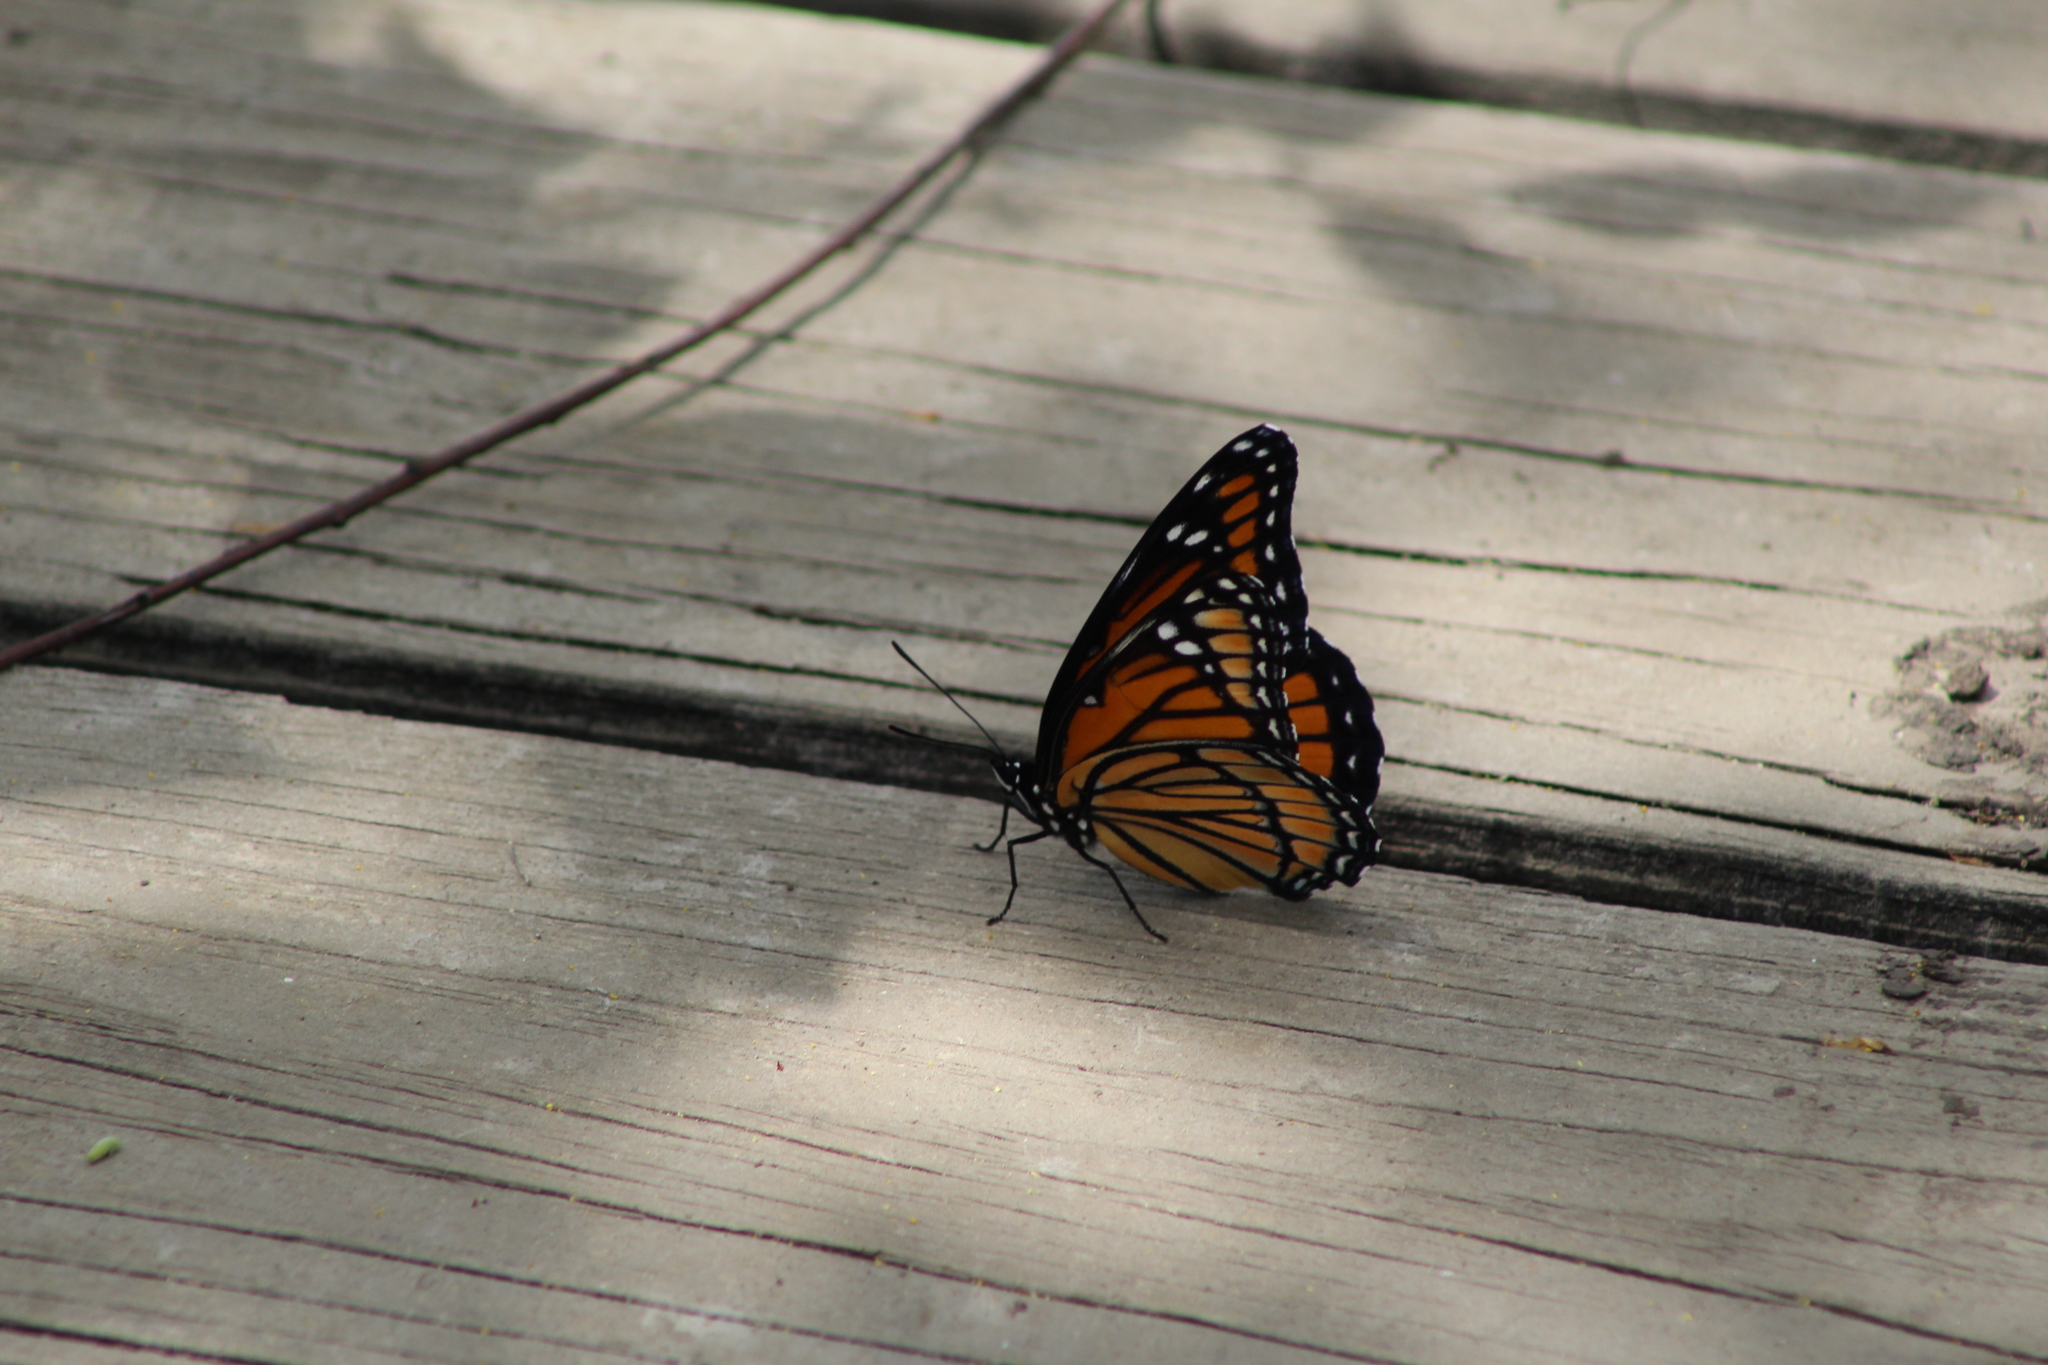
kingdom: Animalia
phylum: Arthropoda
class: Insecta
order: Lepidoptera
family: Nymphalidae
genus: Limenitis
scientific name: Limenitis archippus
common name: Viceroy
